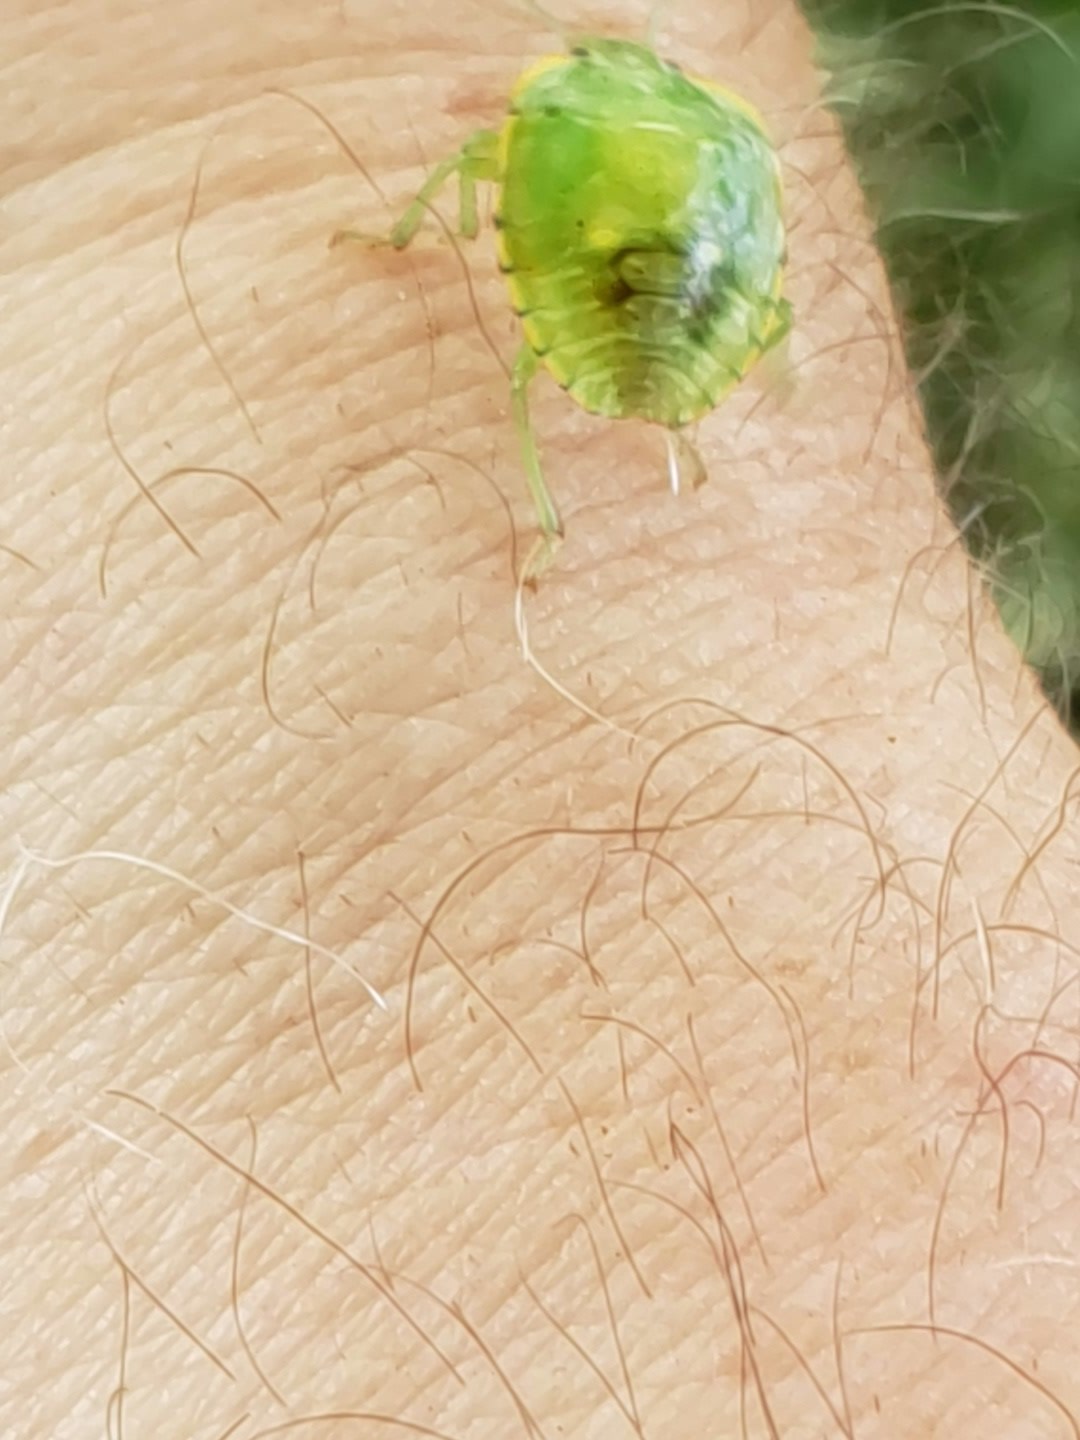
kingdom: Animalia
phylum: Arthropoda
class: Insecta
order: Hemiptera
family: Pentatomidae
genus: Chinavia
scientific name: Chinavia hilaris
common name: Green stink bug
